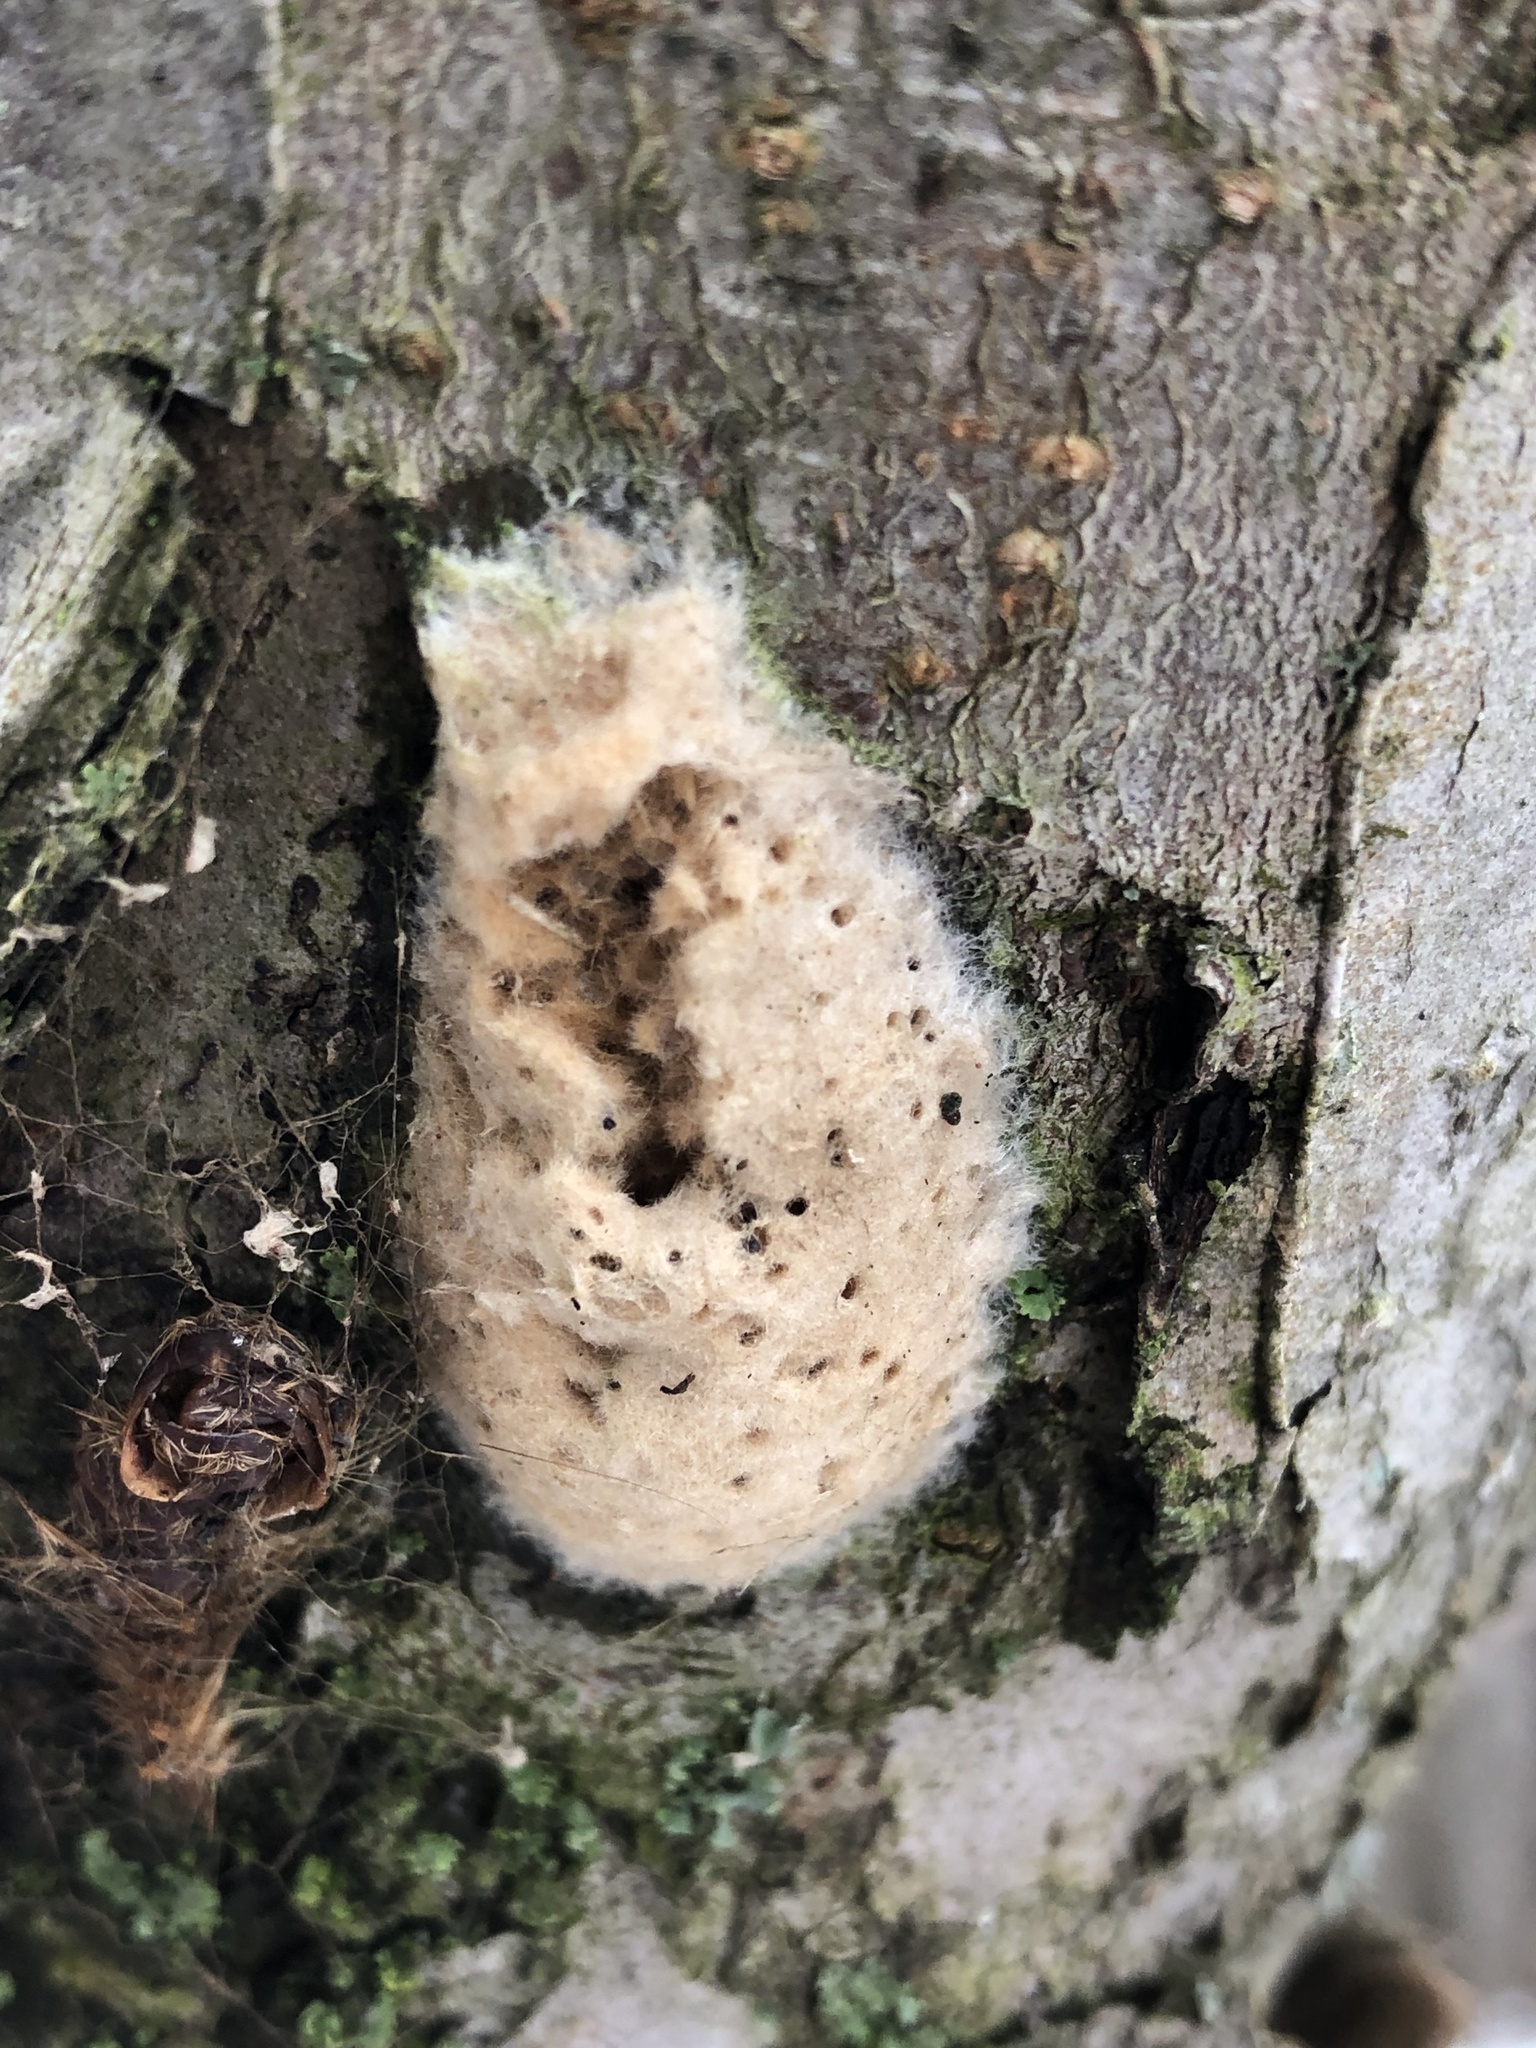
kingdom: Animalia
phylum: Arthropoda
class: Insecta
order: Lepidoptera
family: Erebidae
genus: Lymantria
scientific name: Lymantria dispar
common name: Gypsy moth
